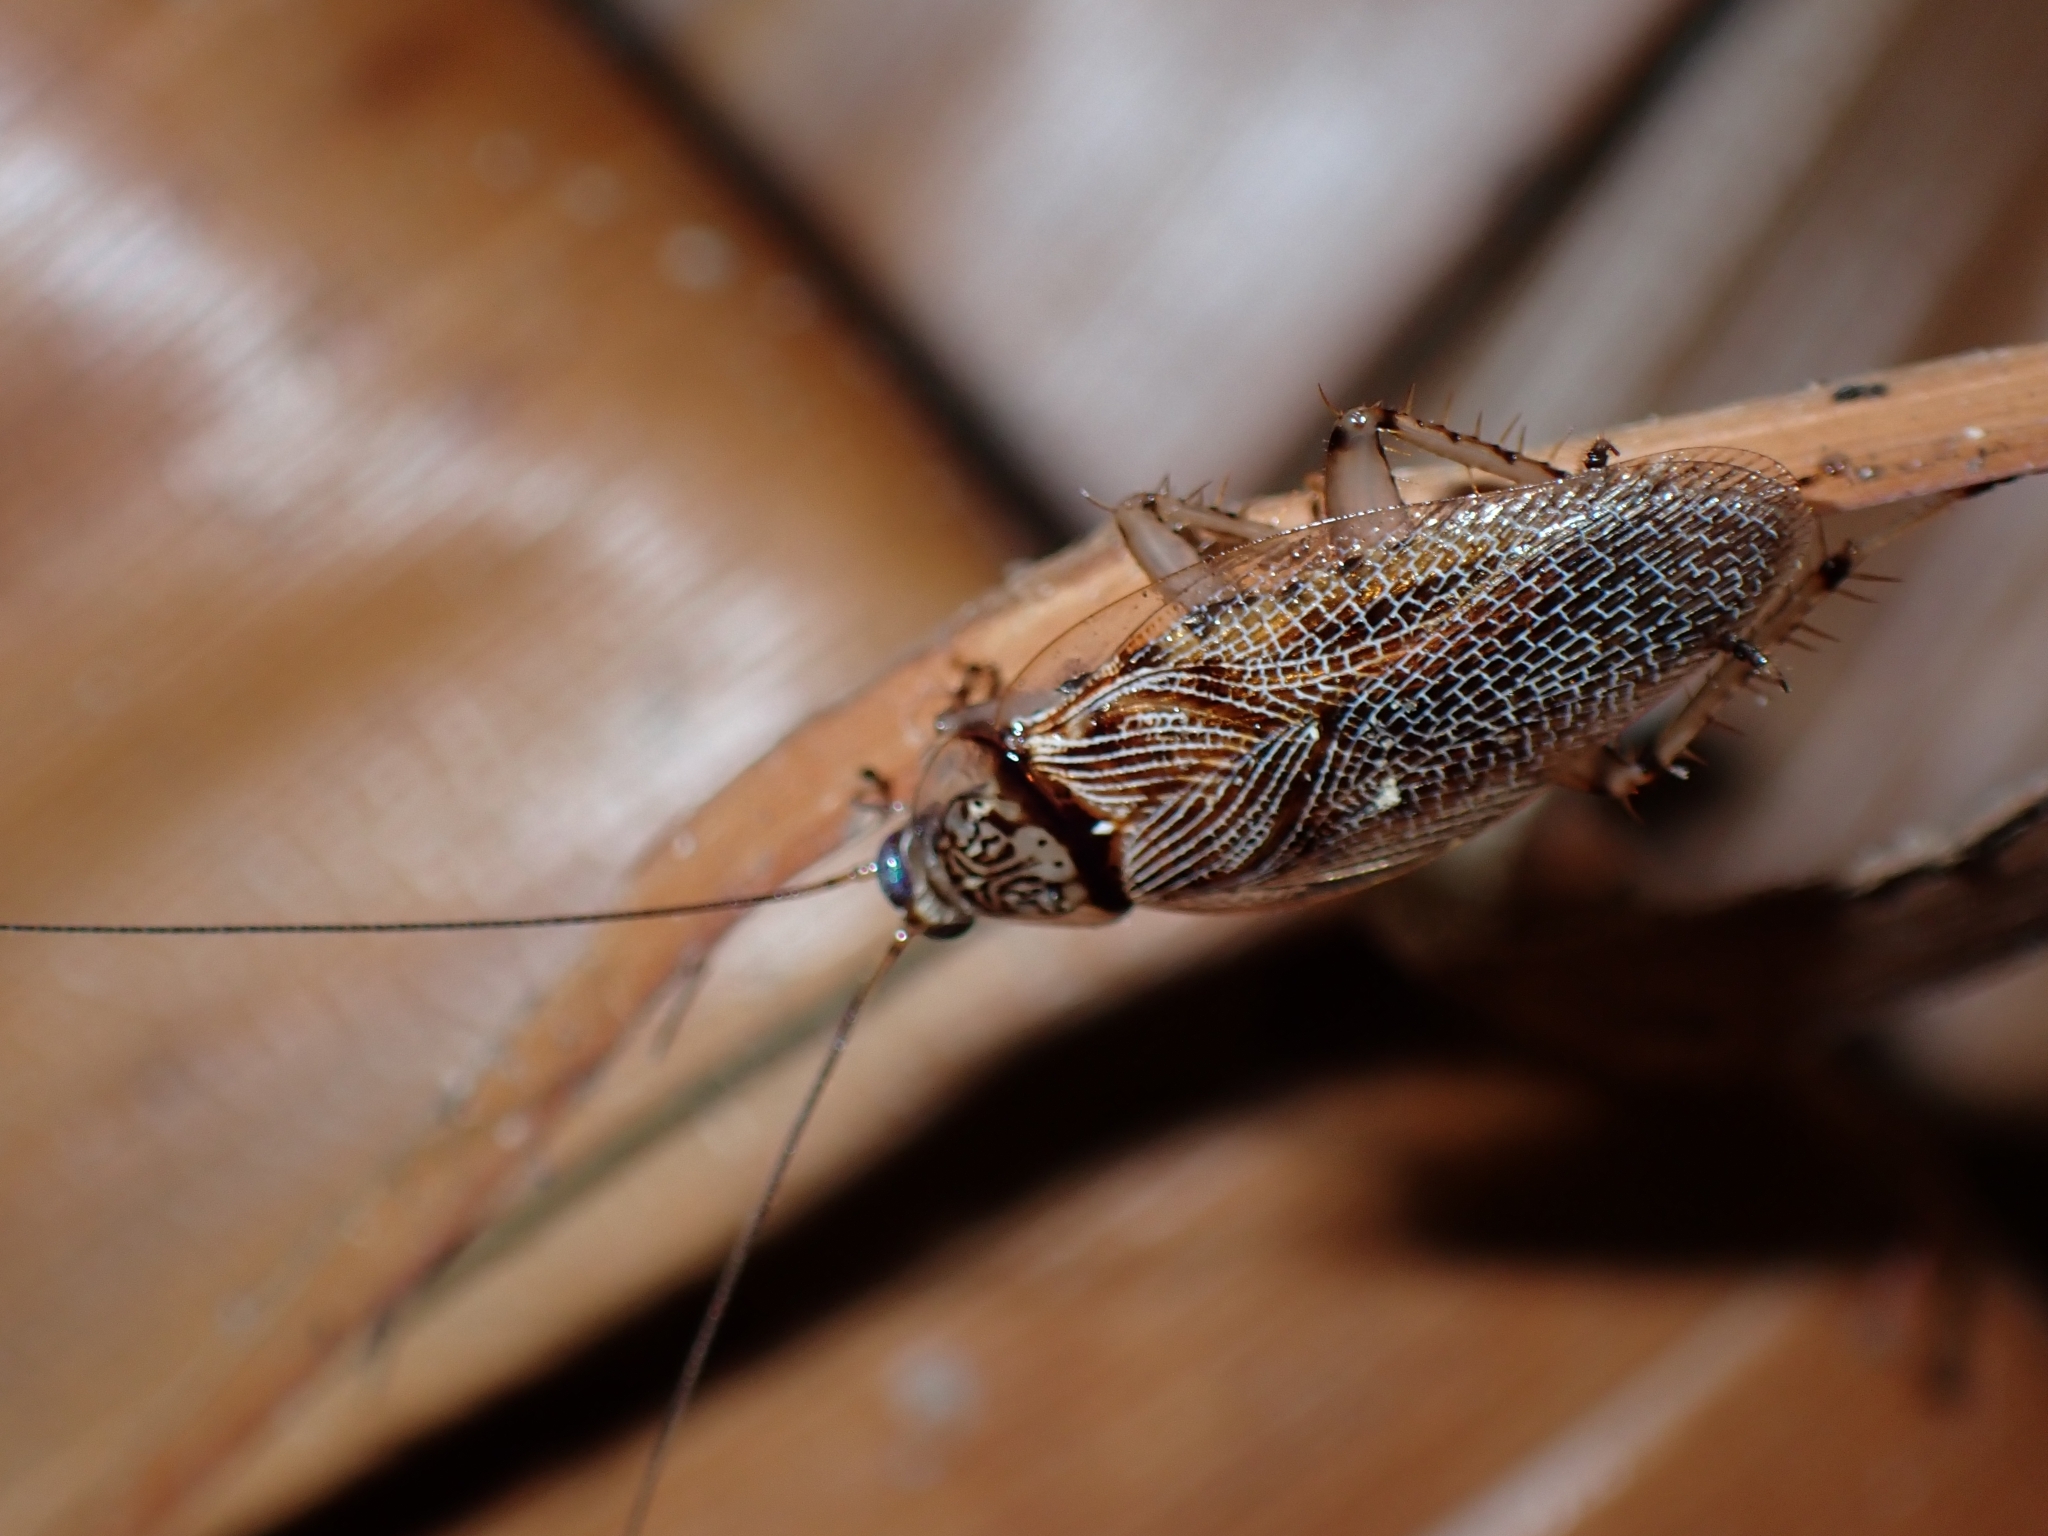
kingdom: Animalia
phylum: Arthropoda
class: Insecta
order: Blattodea
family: Ectobiidae
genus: Balta
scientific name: Balta notulata
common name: Cockroach
